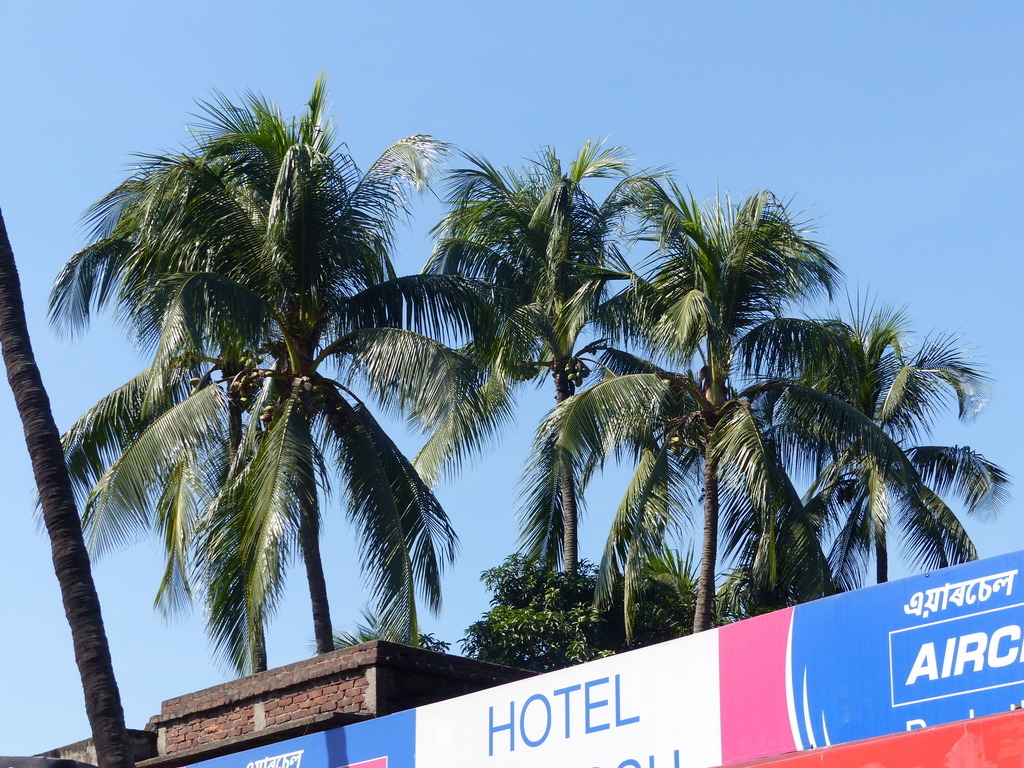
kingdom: Plantae
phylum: Tracheophyta
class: Liliopsida
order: Arecales
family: Arecaceae
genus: Cocos
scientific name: Cocos nucifera
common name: Coconut palm
